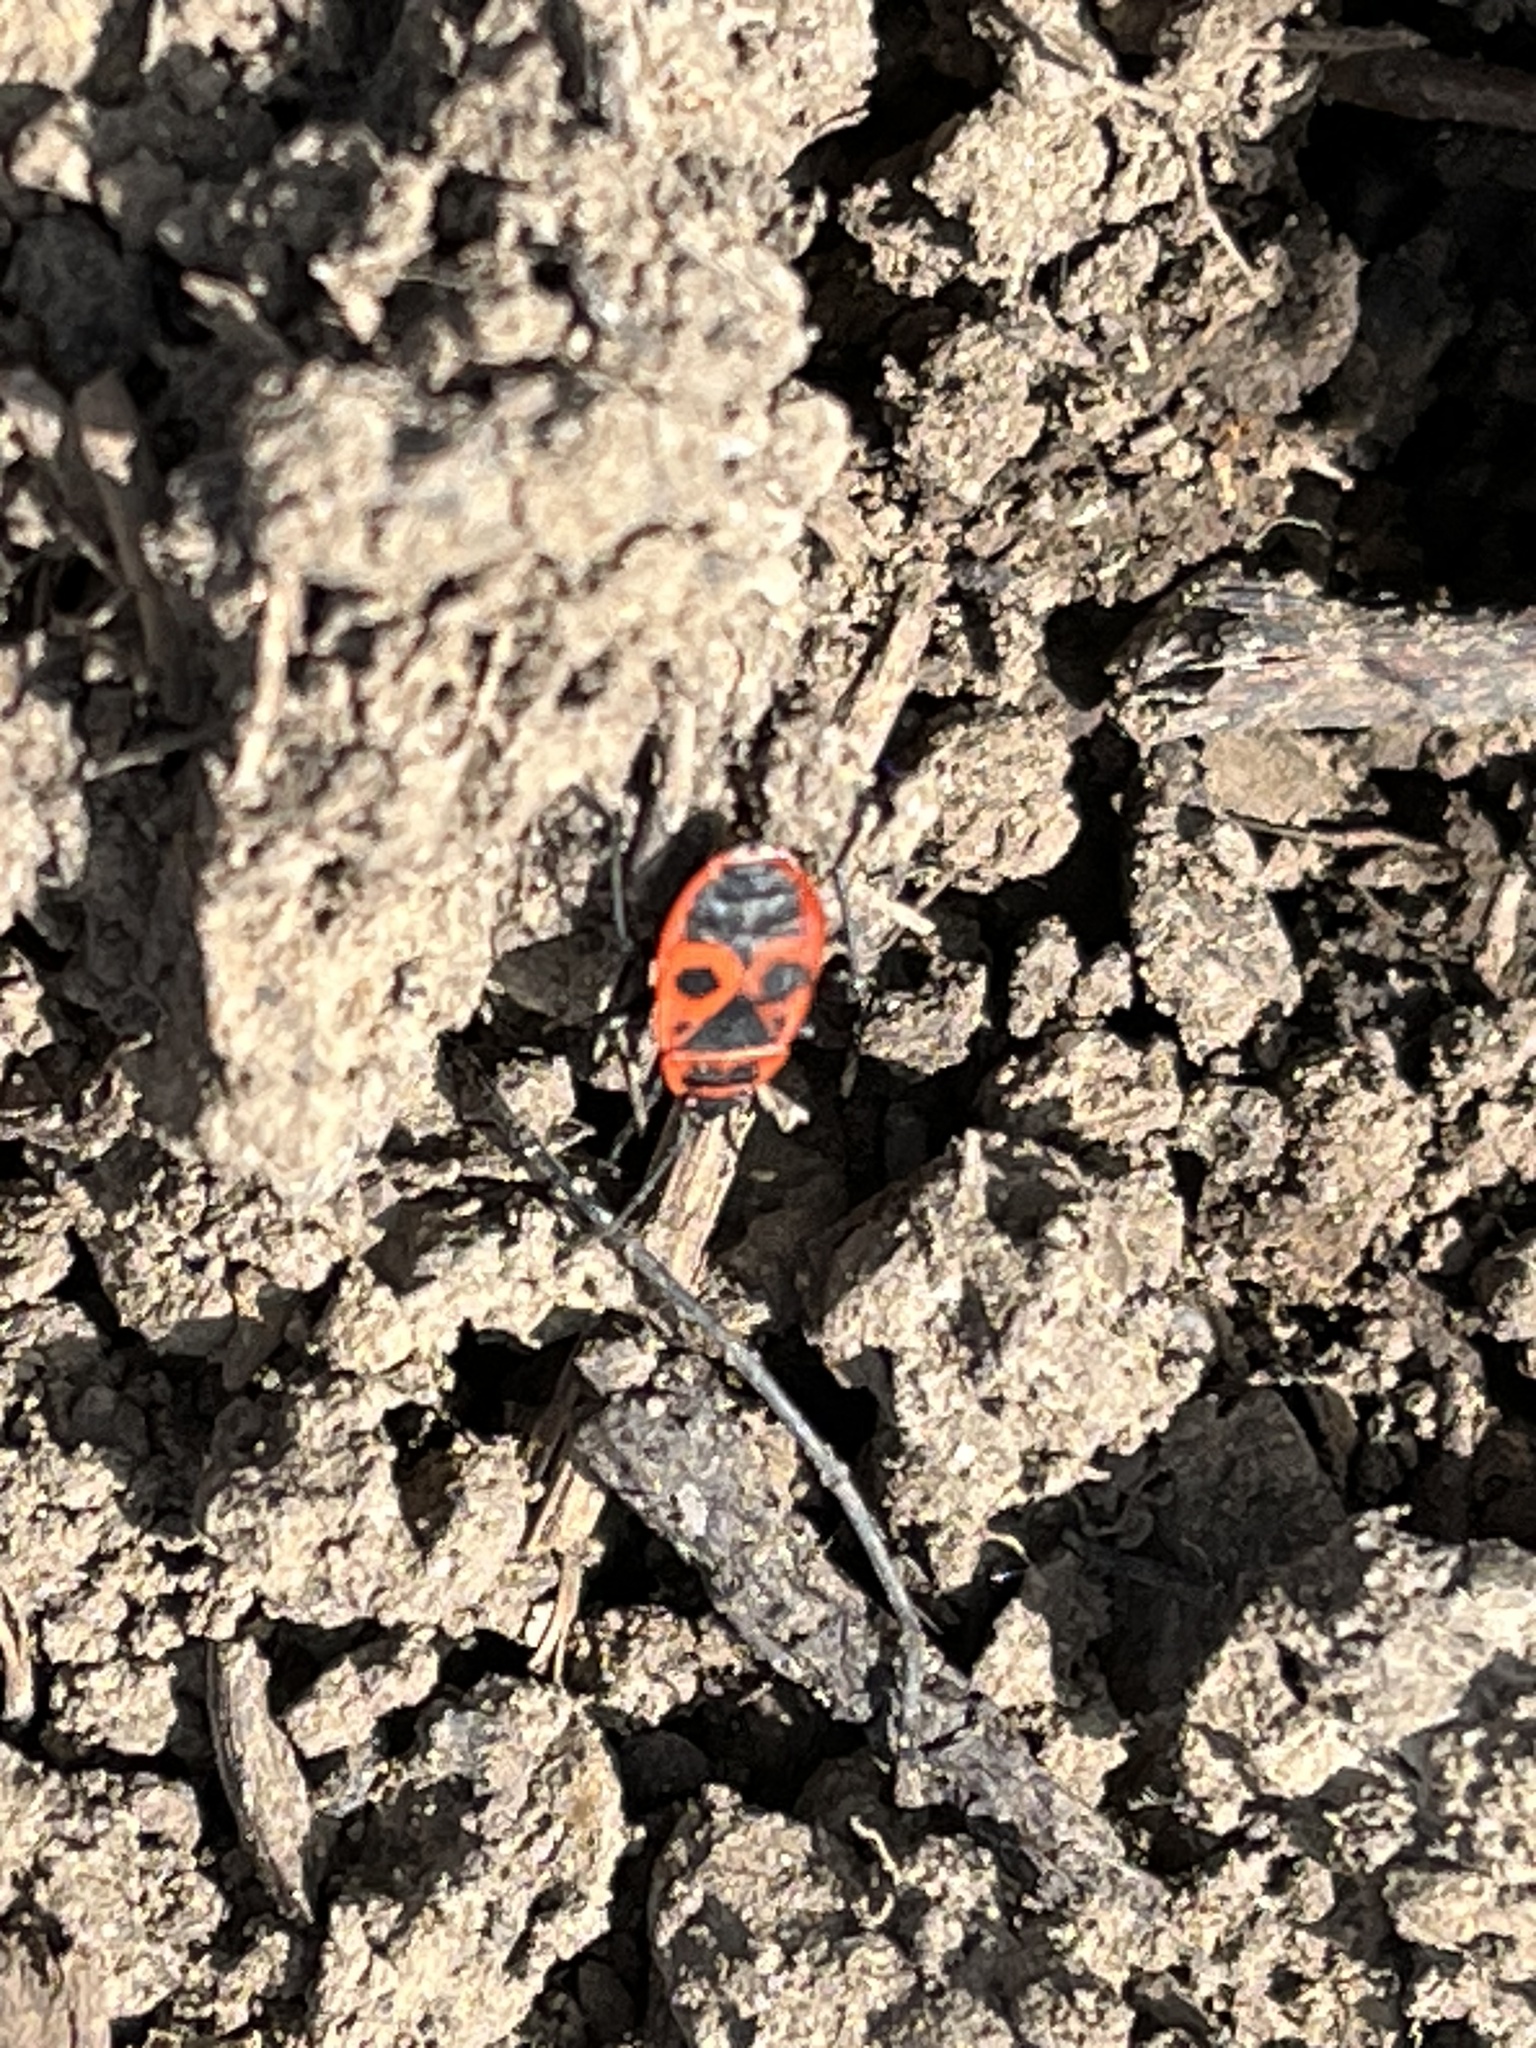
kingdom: Animalia
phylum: Arthropoda
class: Insecta
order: Hemiptera
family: Pyrrhocoridae
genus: Pyrrhocoris
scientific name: Pyrrhocoris apterus
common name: Firebug
